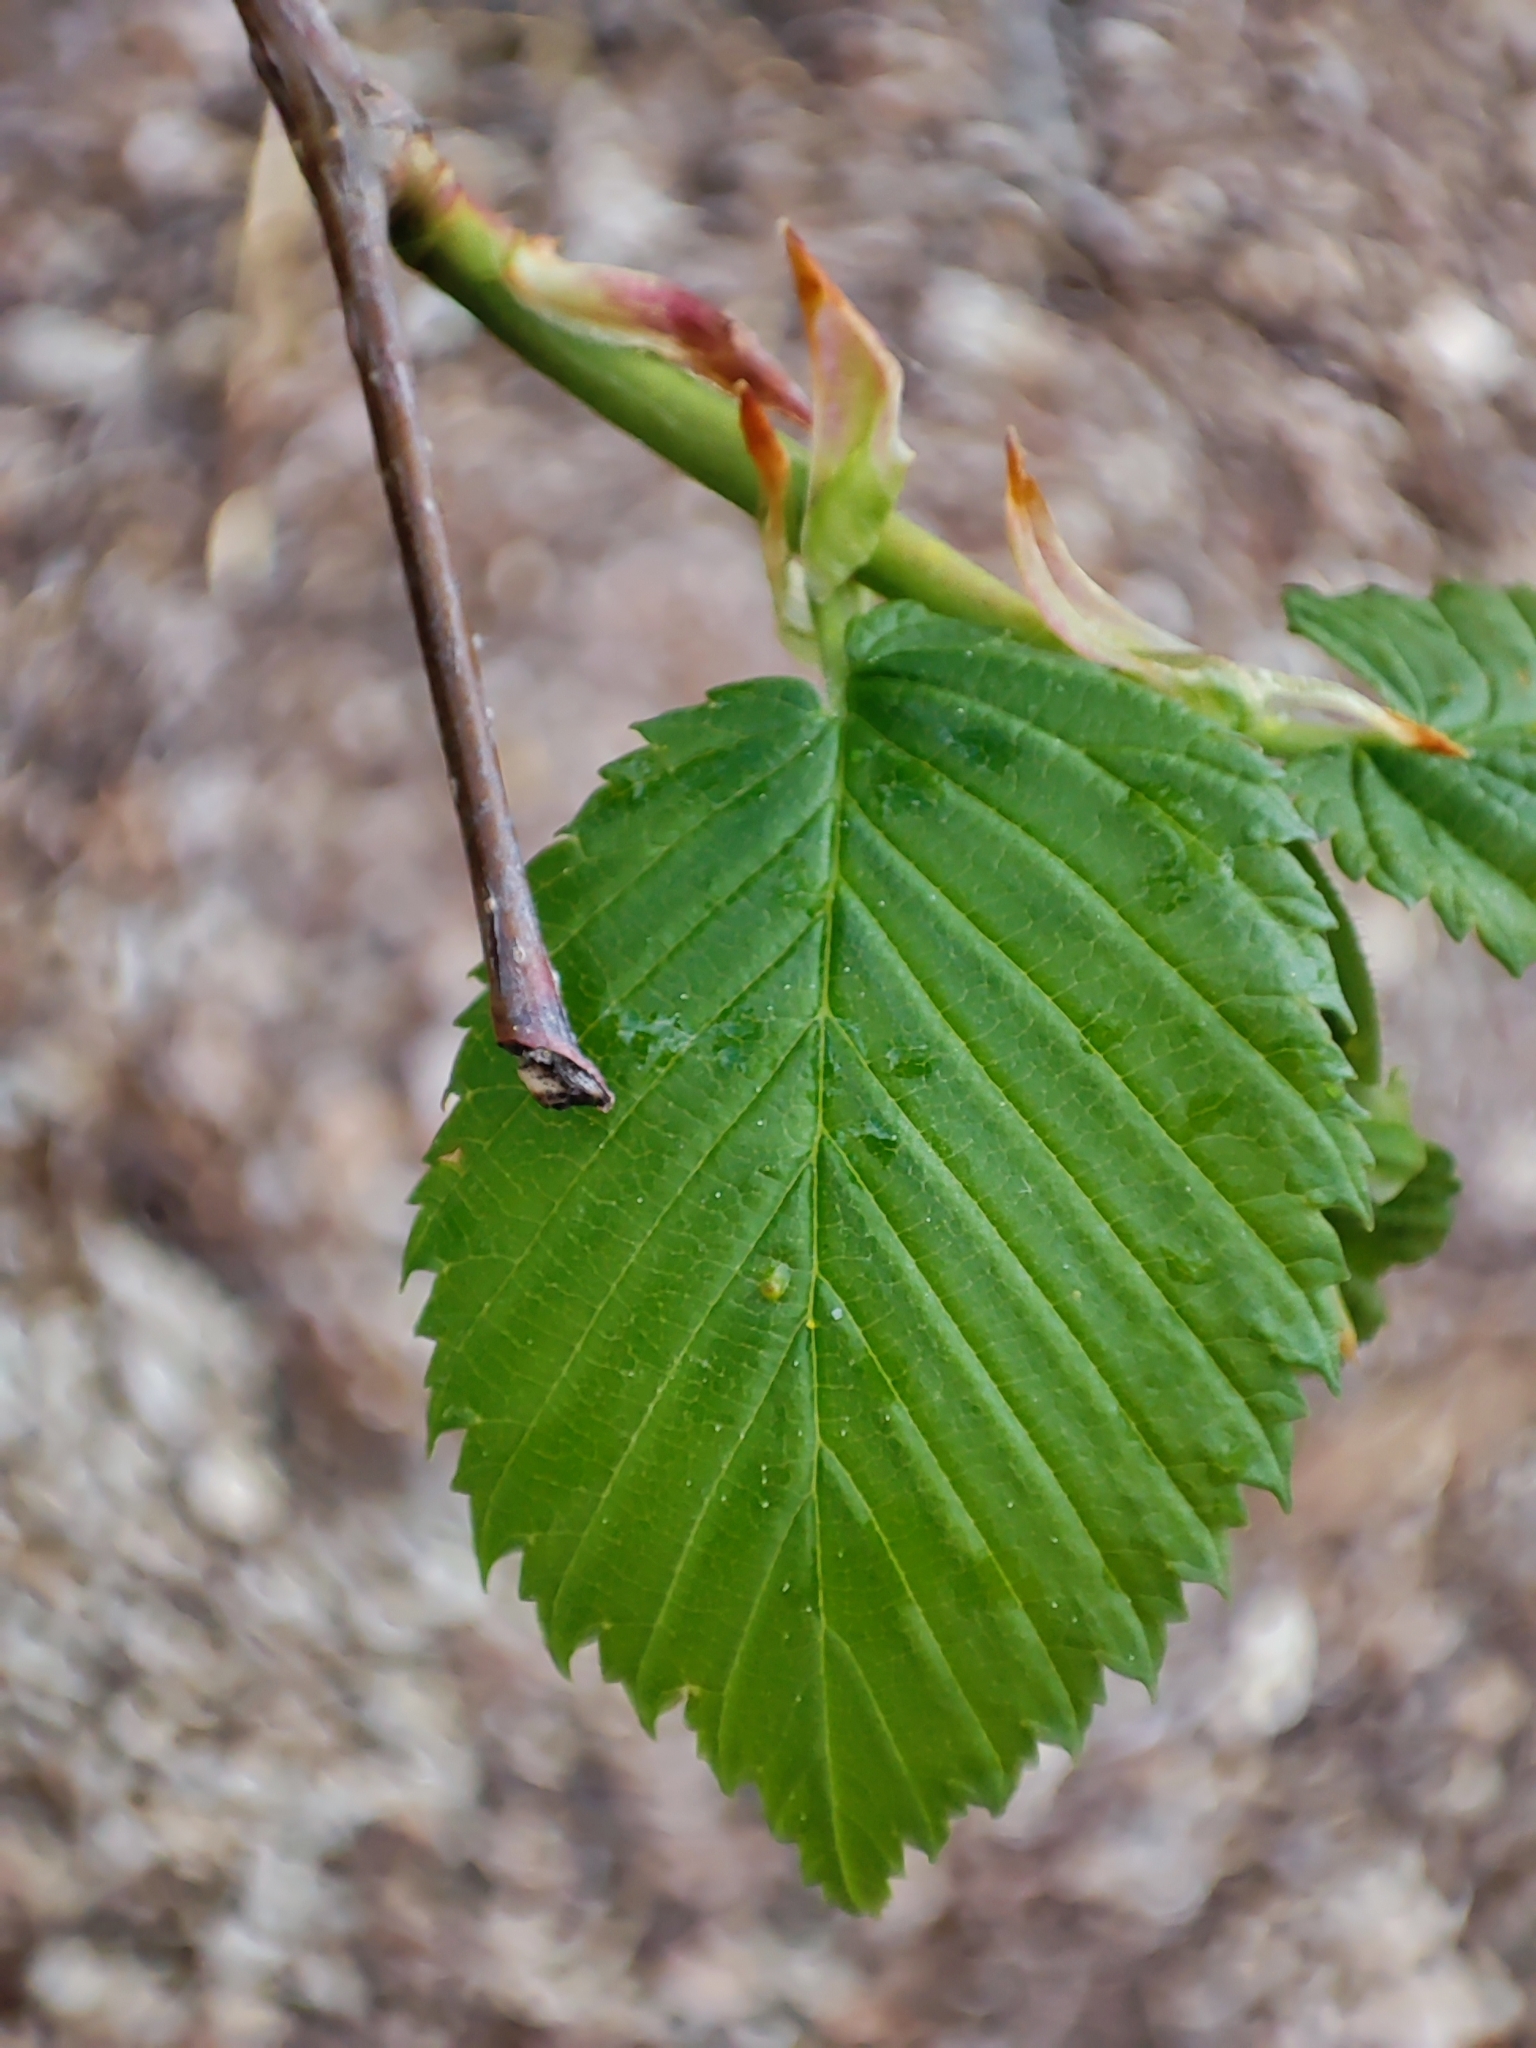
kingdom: Plantae
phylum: Tracheophyta
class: Magnoliopsida
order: Rosales
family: Ulmaceae
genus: Ulmus
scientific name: Ulmus laevis
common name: European white-elm
